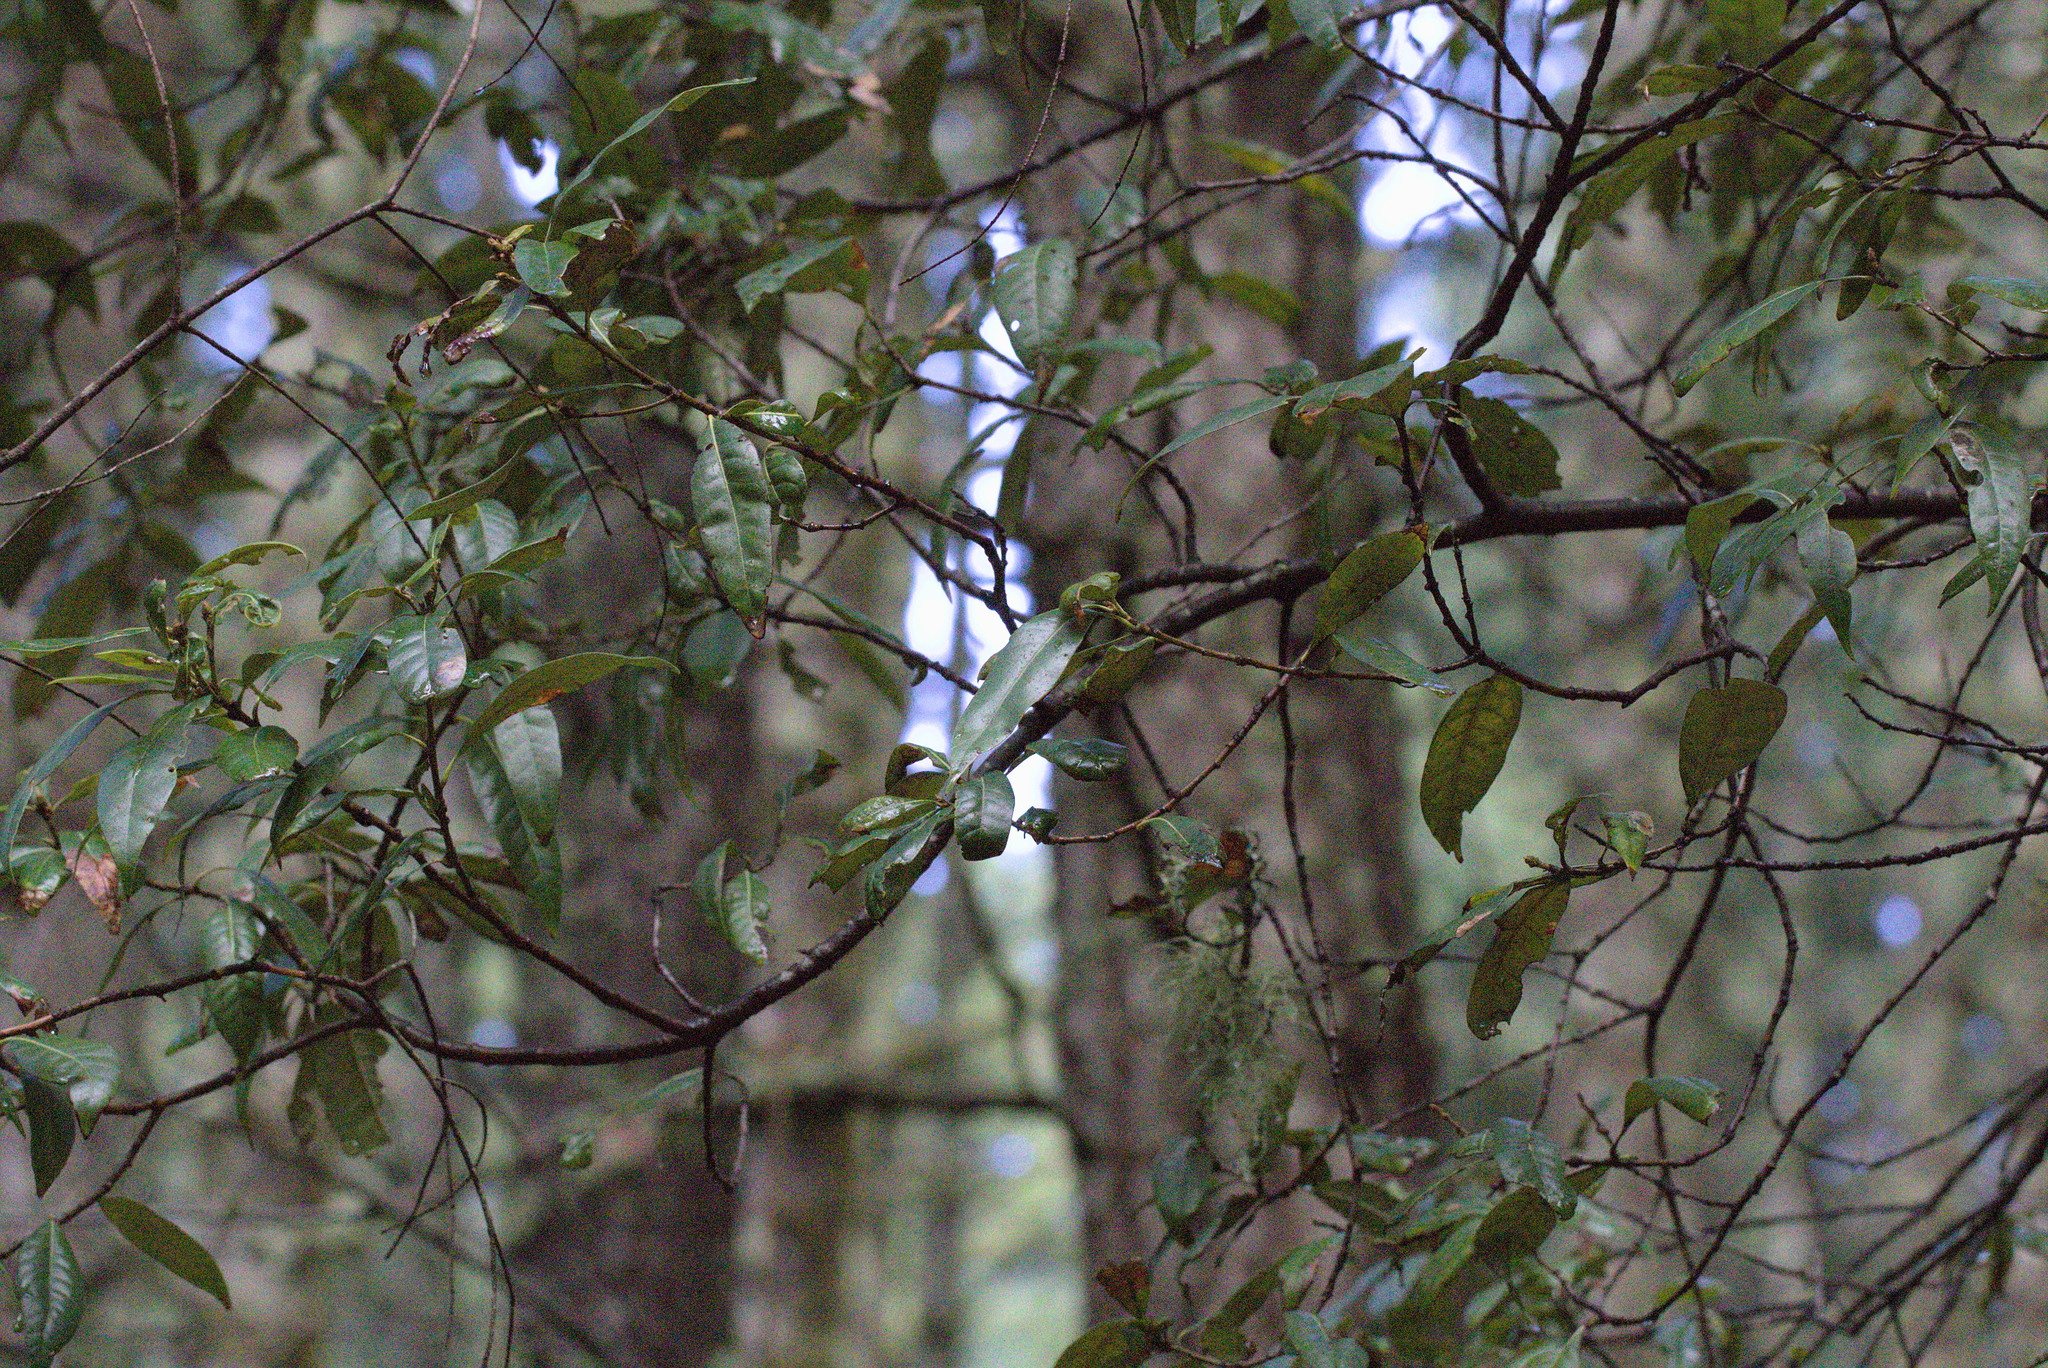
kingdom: Plantae
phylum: Tracheophyta
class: Magnoliopsida
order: Fagales
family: Fagaceae
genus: Chrysolepis
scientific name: Chrysolepis chrysophylla
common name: Giant chinquapin
